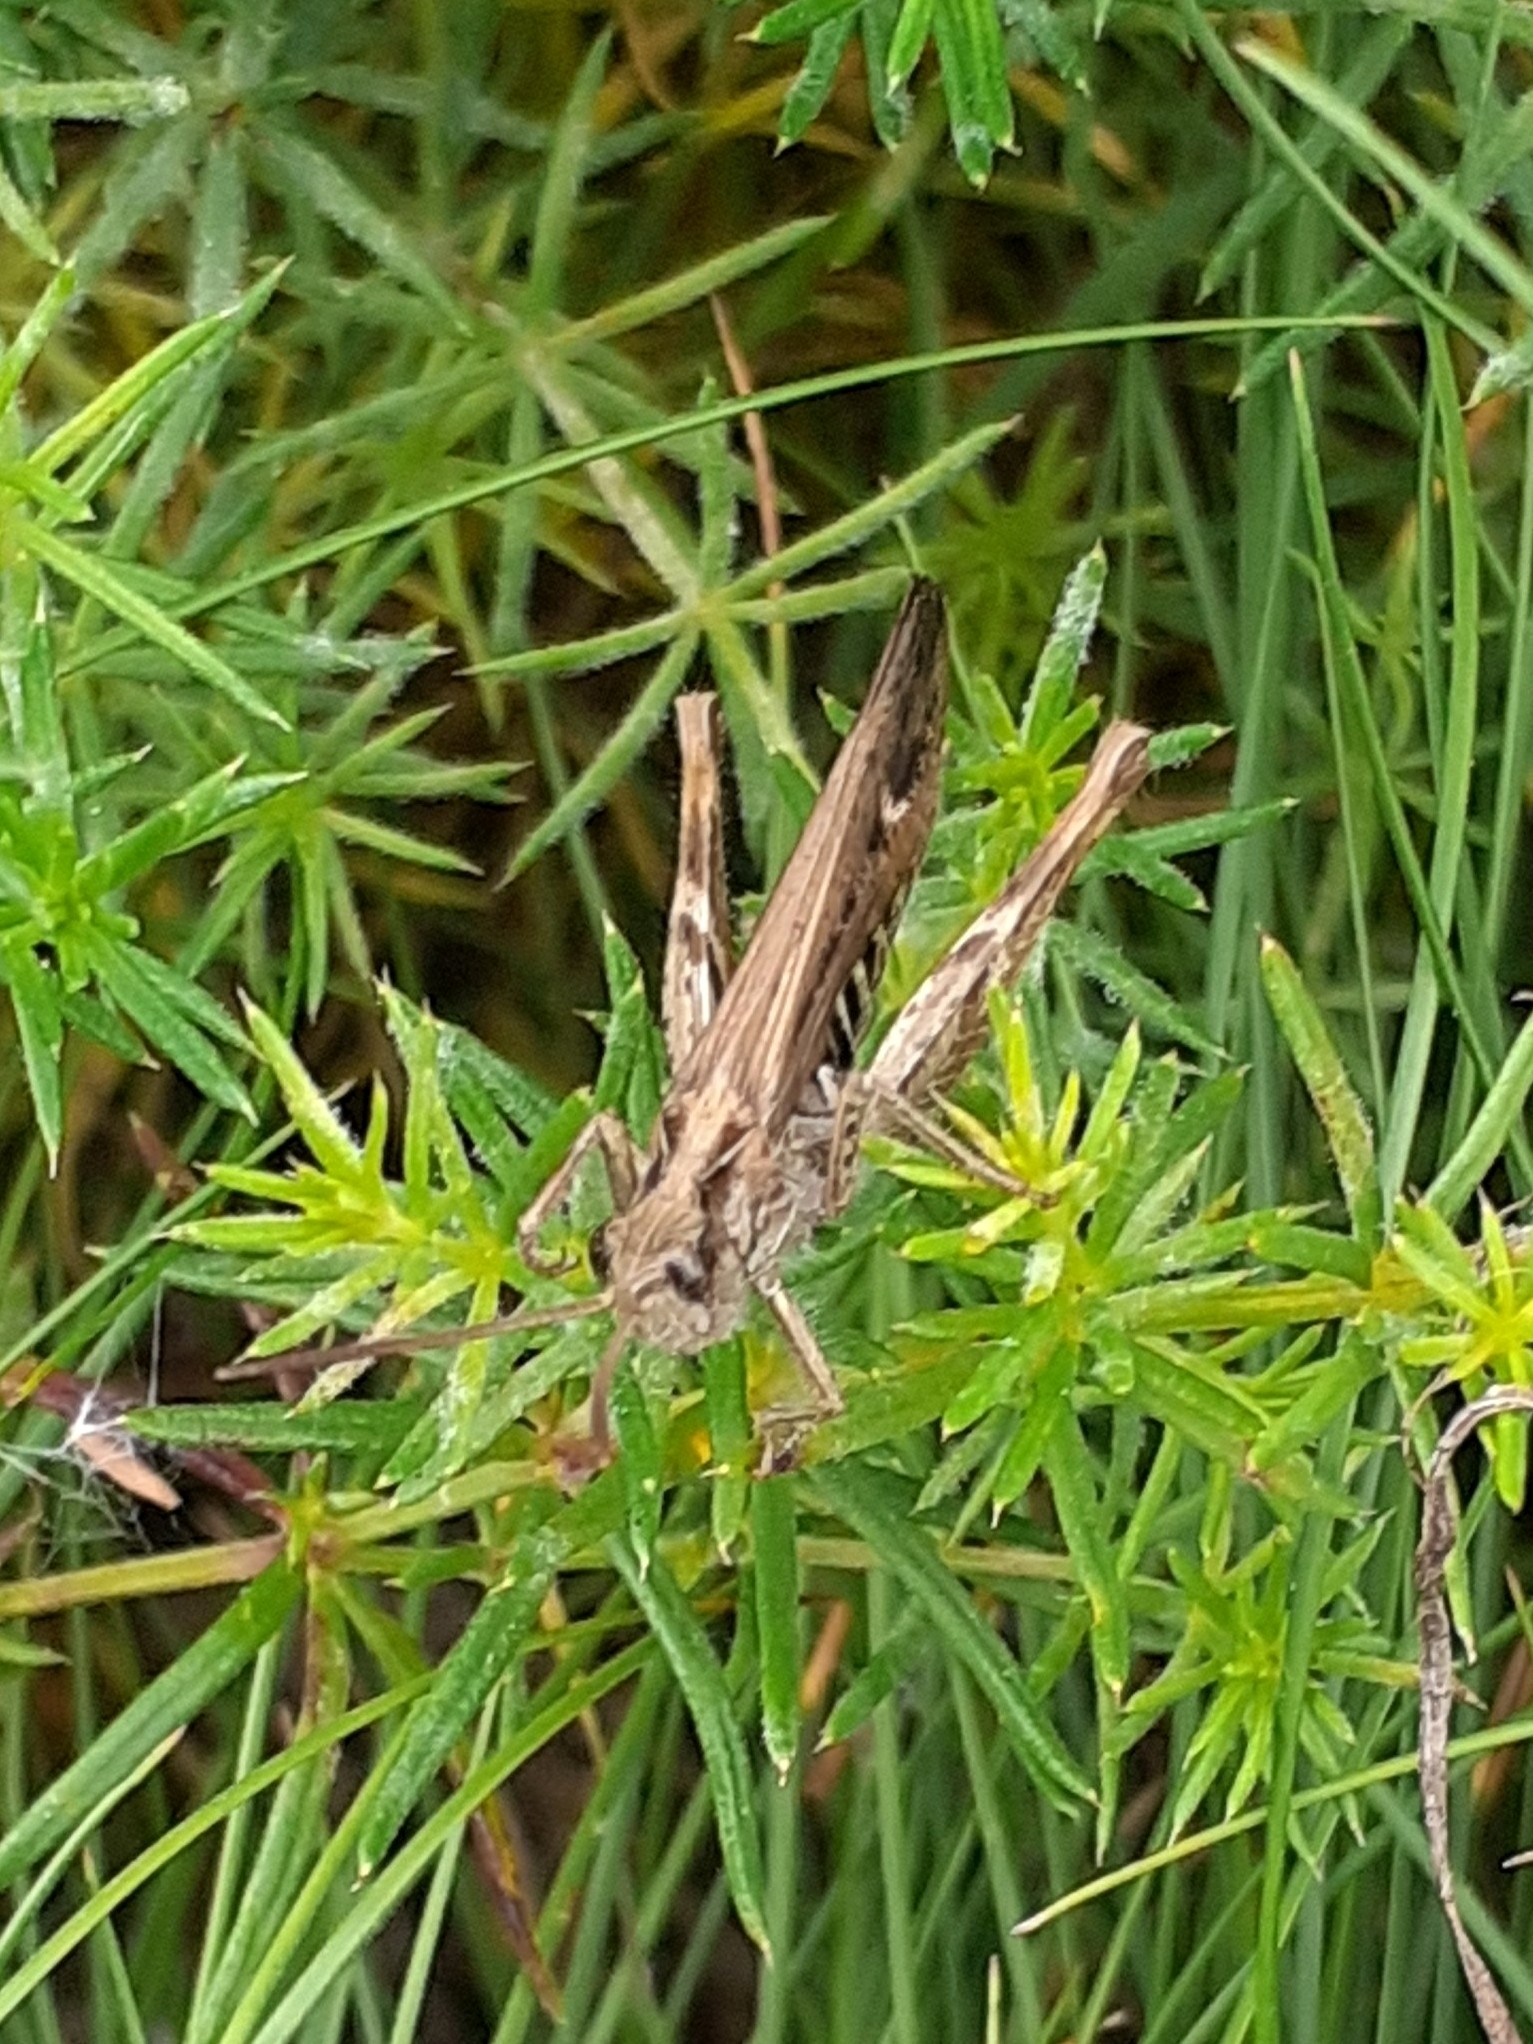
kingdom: Animalia
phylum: Arthropoda
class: Insecta
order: Orthoptera
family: Acrididae
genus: Chorthippus
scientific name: Chorthippus brunneus
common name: Field grasshopper
